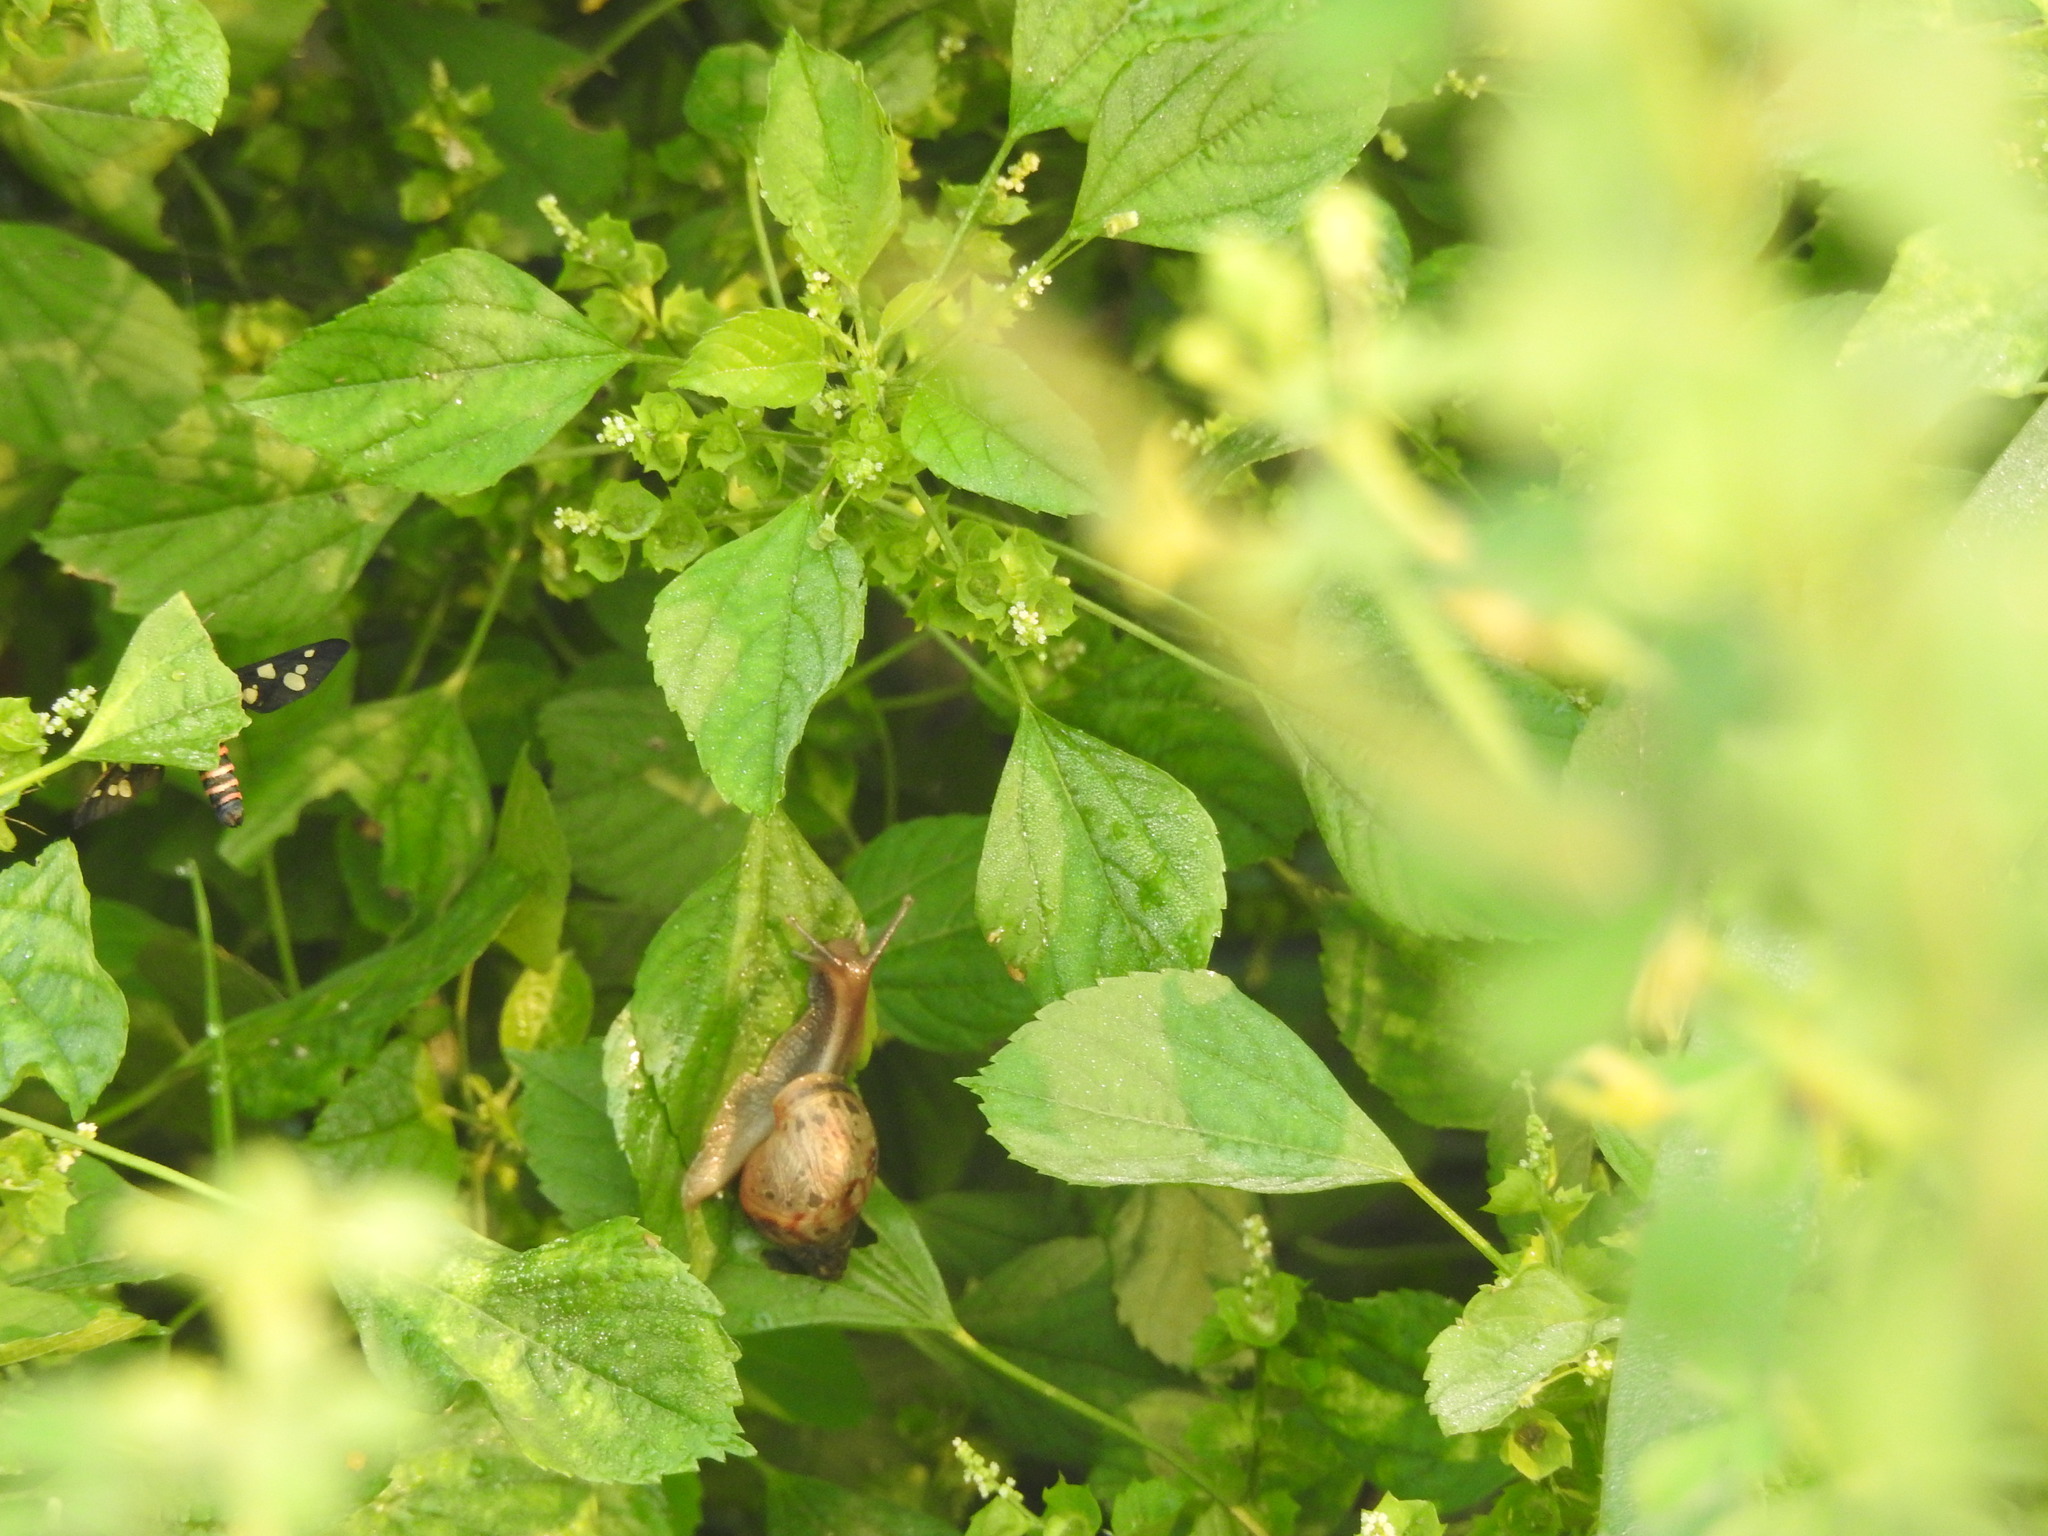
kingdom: Animalia
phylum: Arthropoda
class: Insecta
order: Lepidoptera
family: Erebidae
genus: Amata
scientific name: Amata passalis
